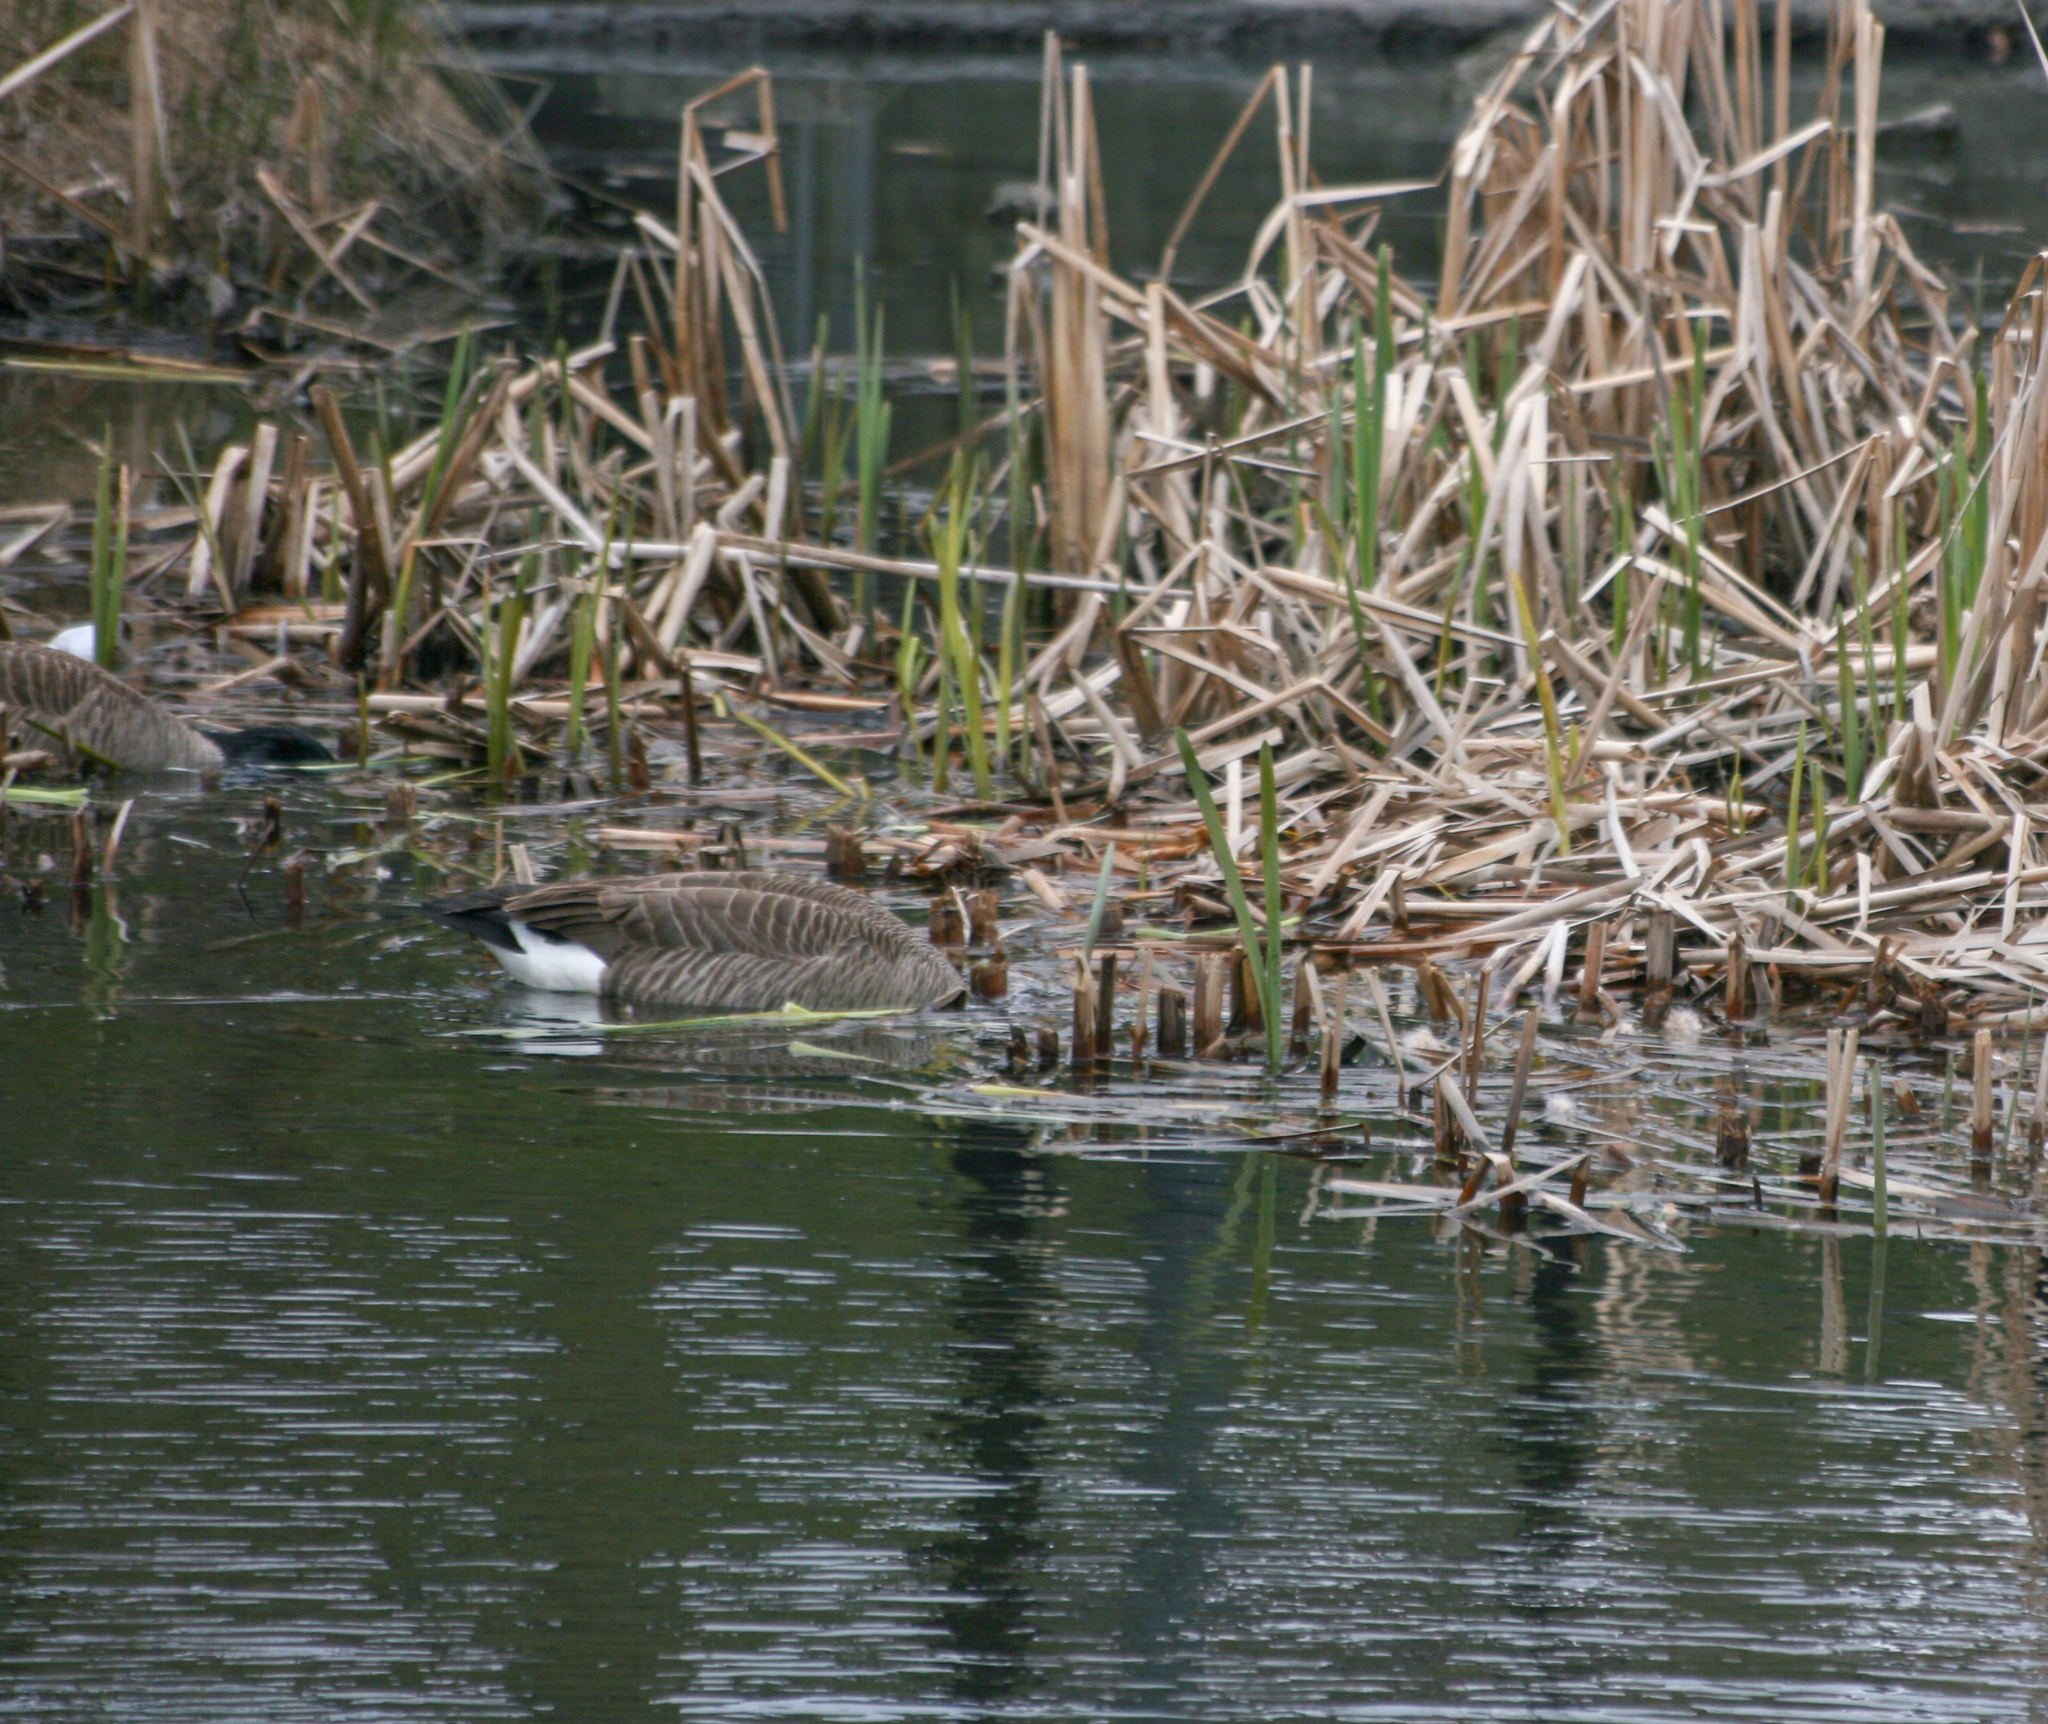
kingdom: Animalia
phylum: Chordata
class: Aves
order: Anseriformes
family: Anatidae
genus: Branta
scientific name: Branta canadensis
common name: Canada goose
